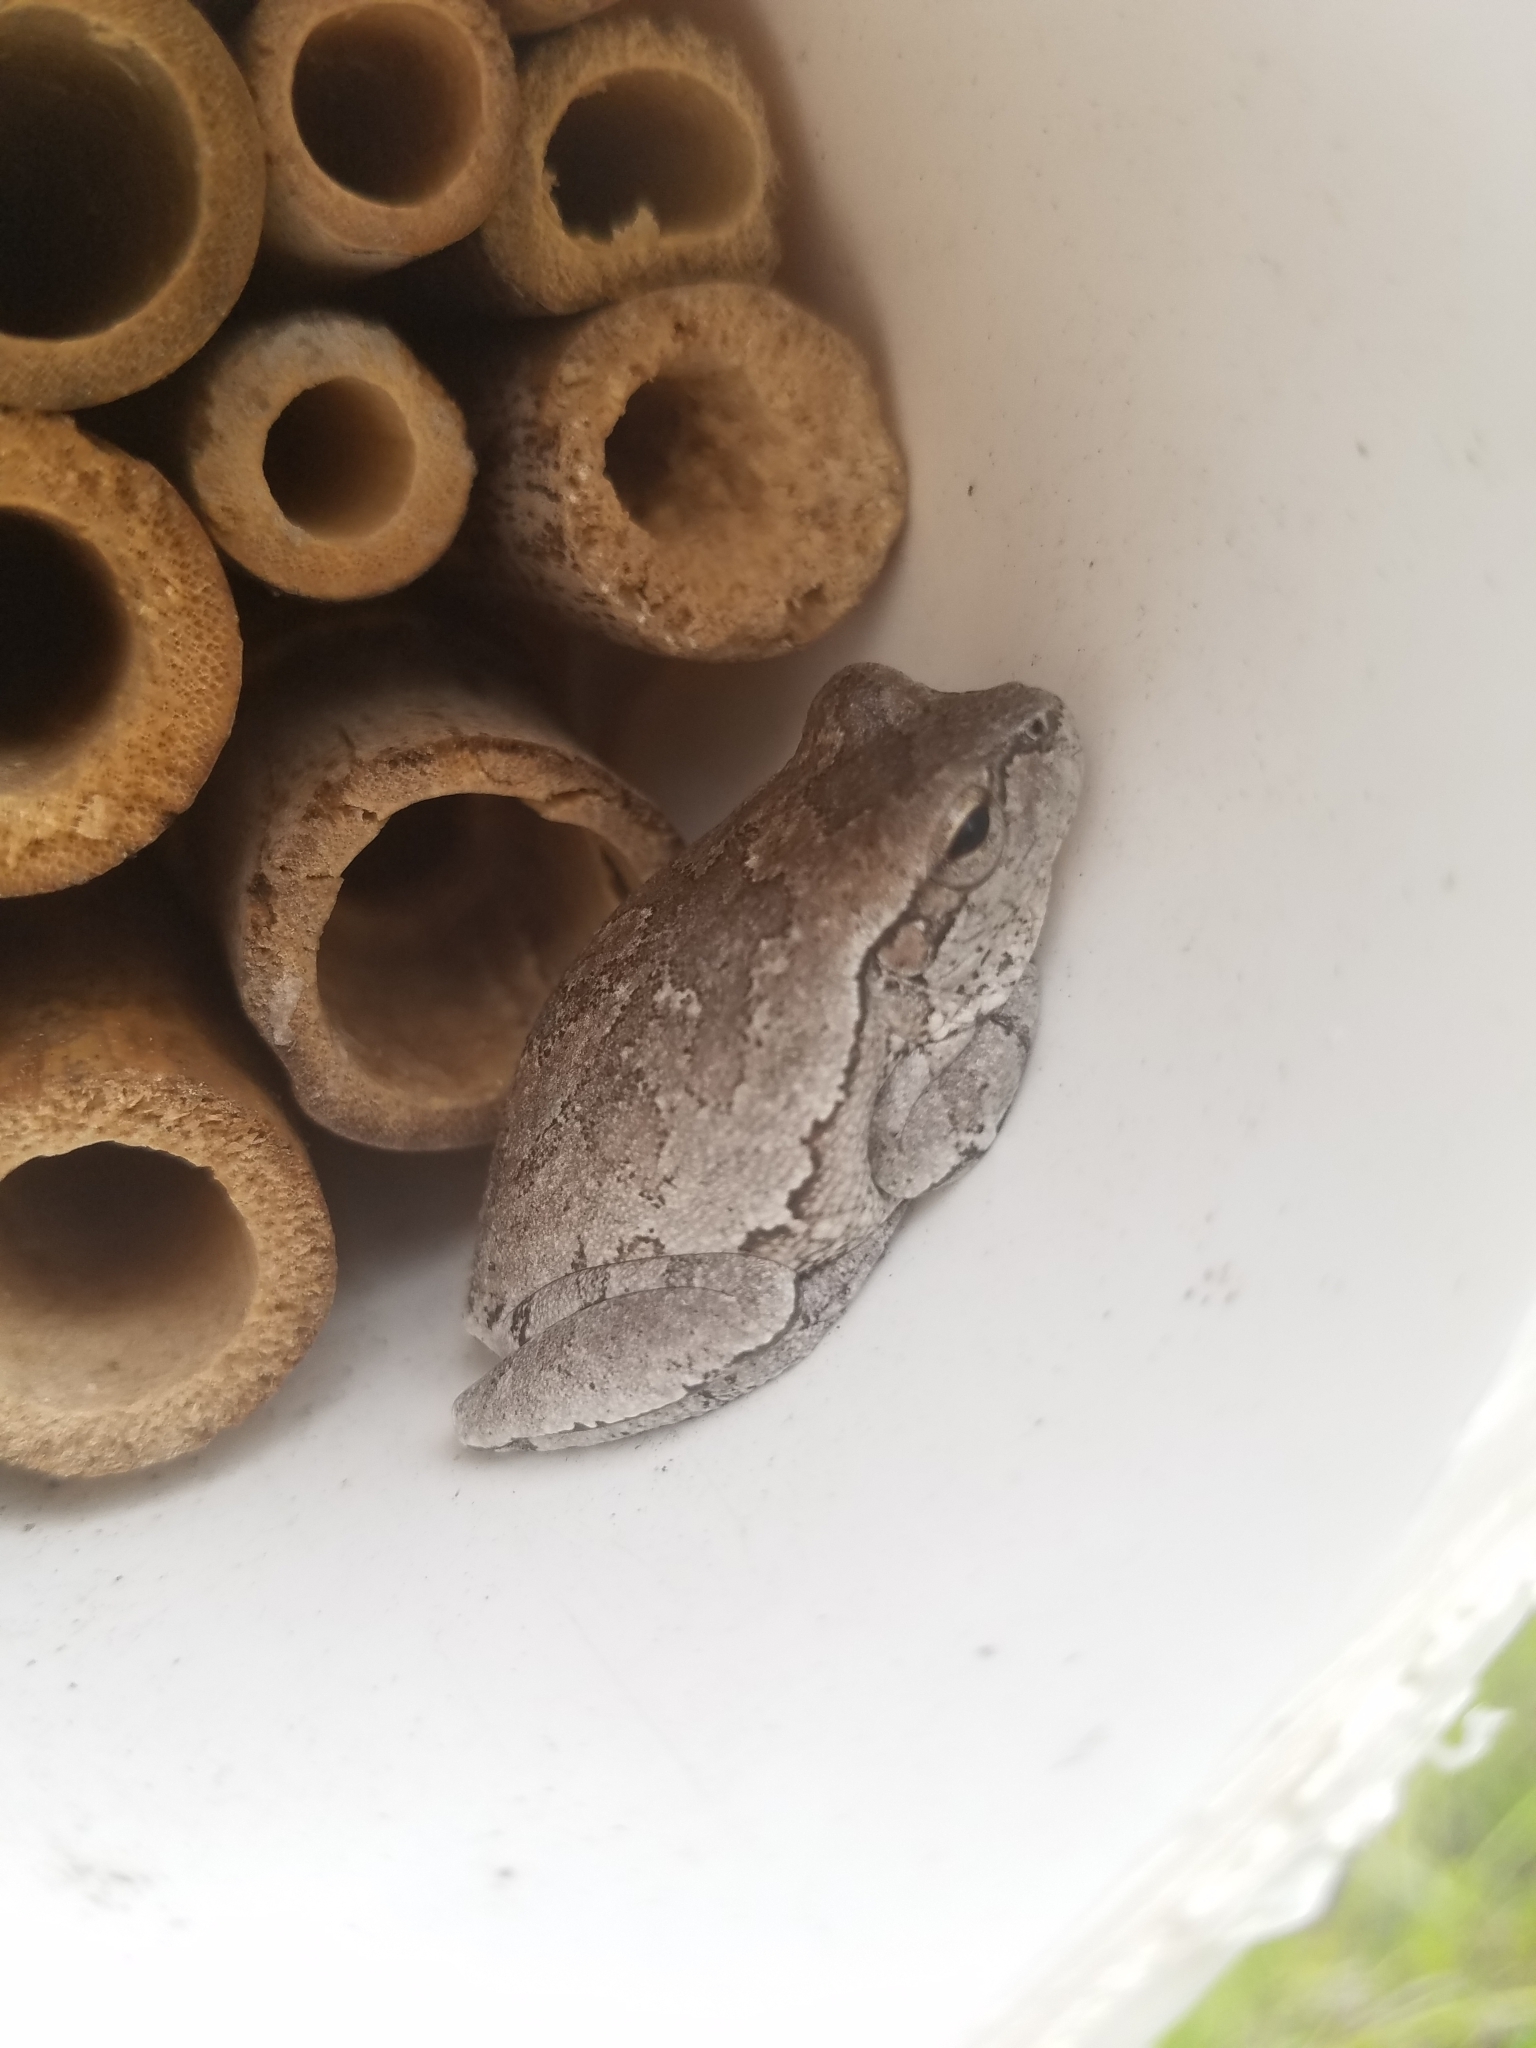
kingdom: Animalia
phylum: Chordata
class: Amphibia
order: Anura
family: Hylidae
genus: Hyla
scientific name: Hyla femoralis
